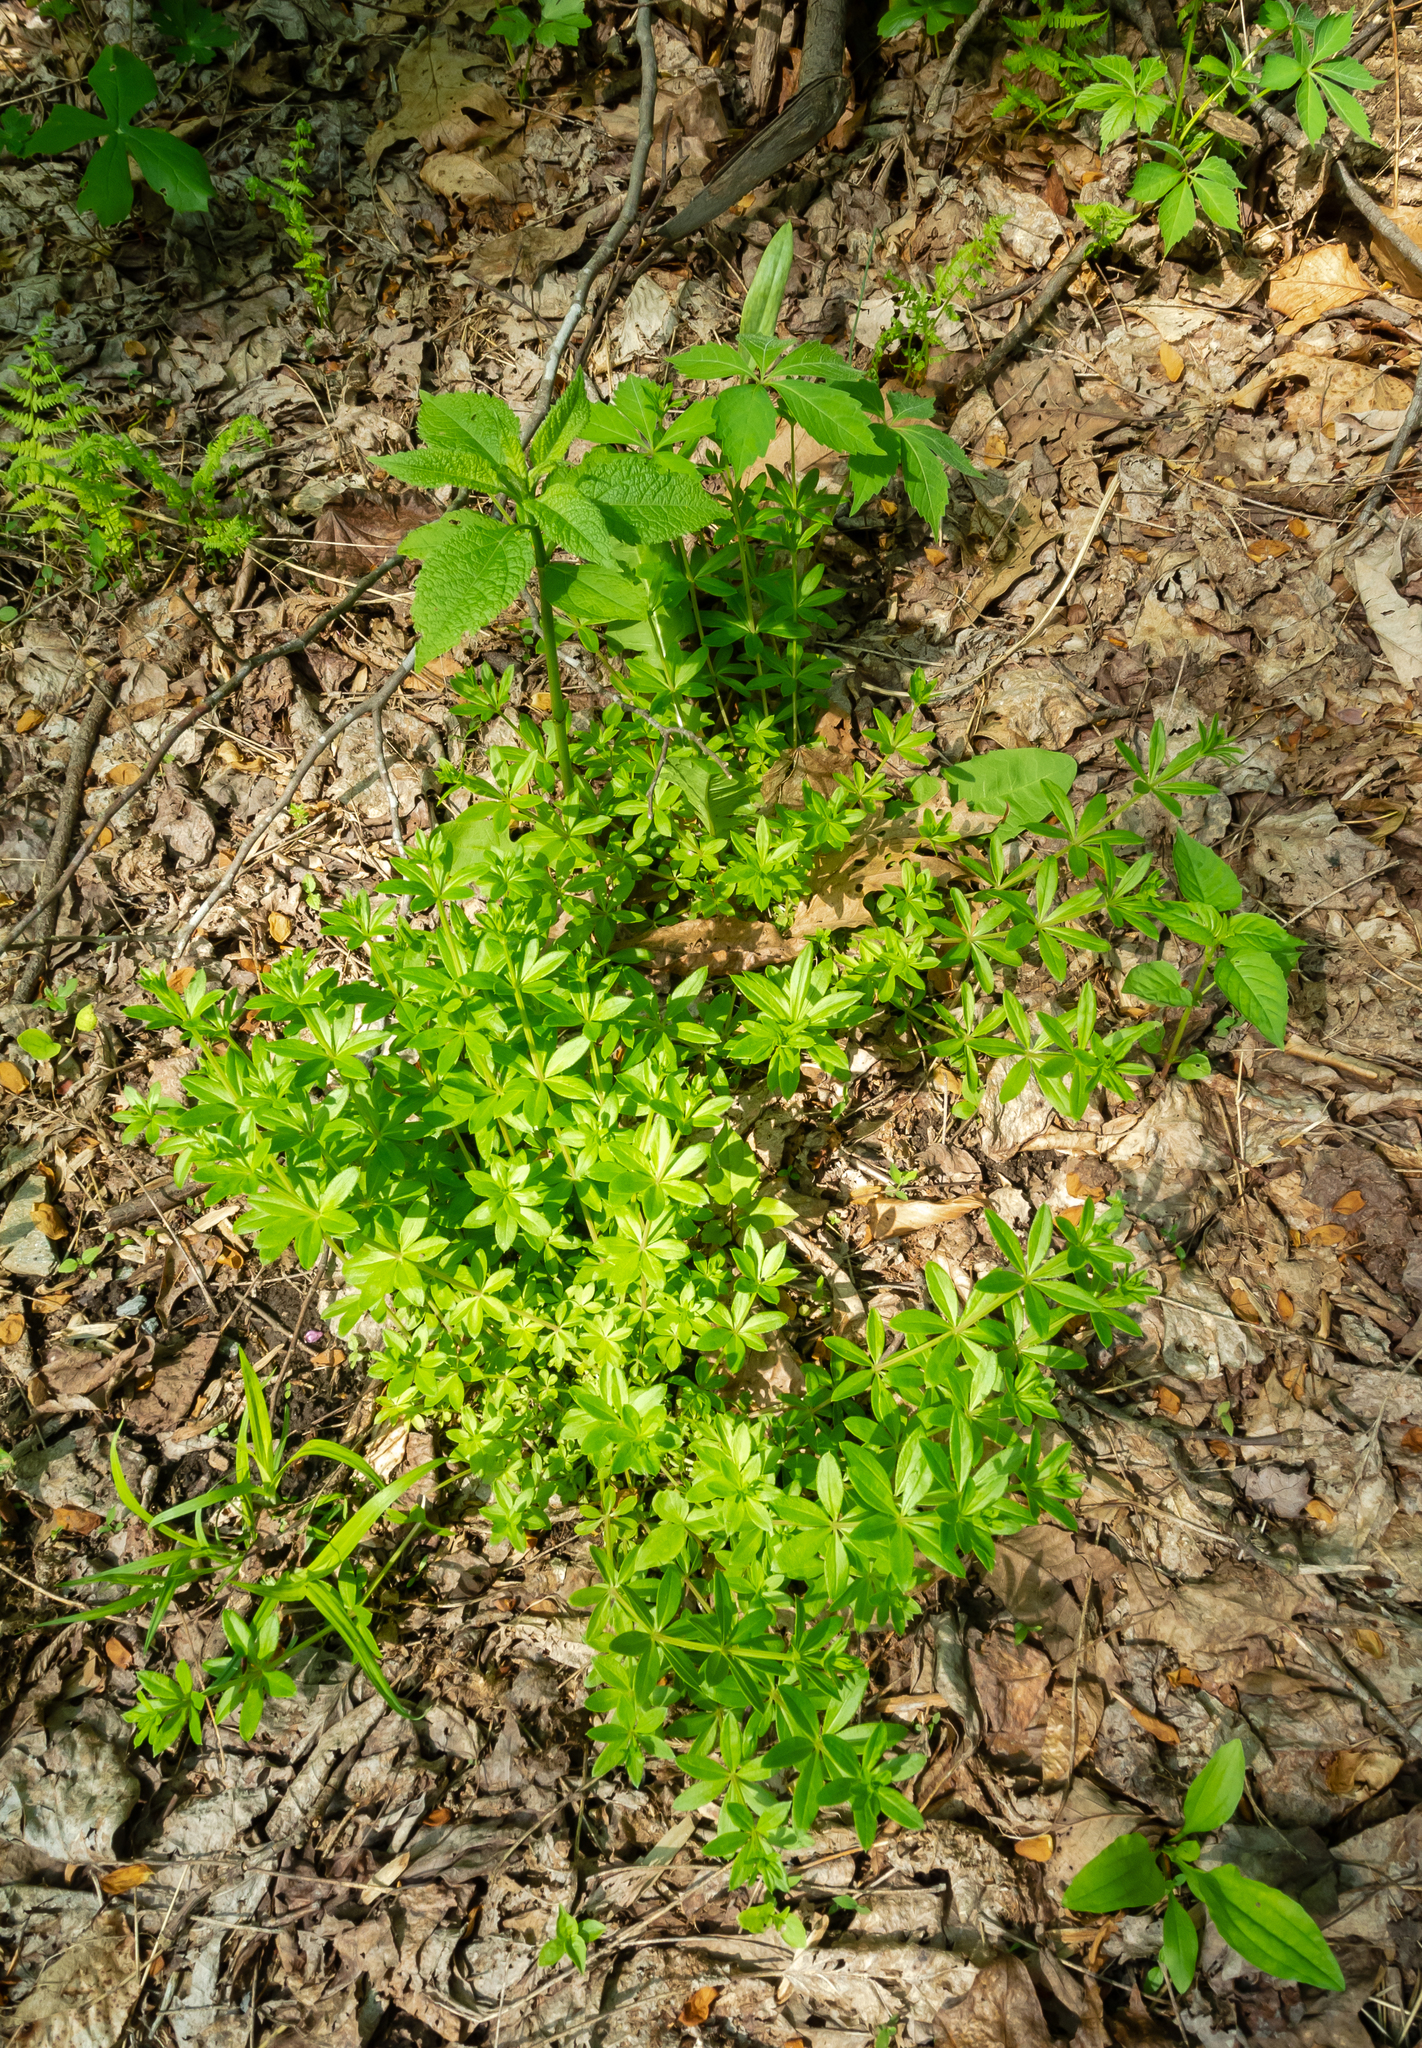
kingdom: Plantae
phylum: Tracheophyta
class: Magnoliopsida
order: Gentianales
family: Rubiaceae
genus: Galium
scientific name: Galium triflorum
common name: Fragrant bedstraw
